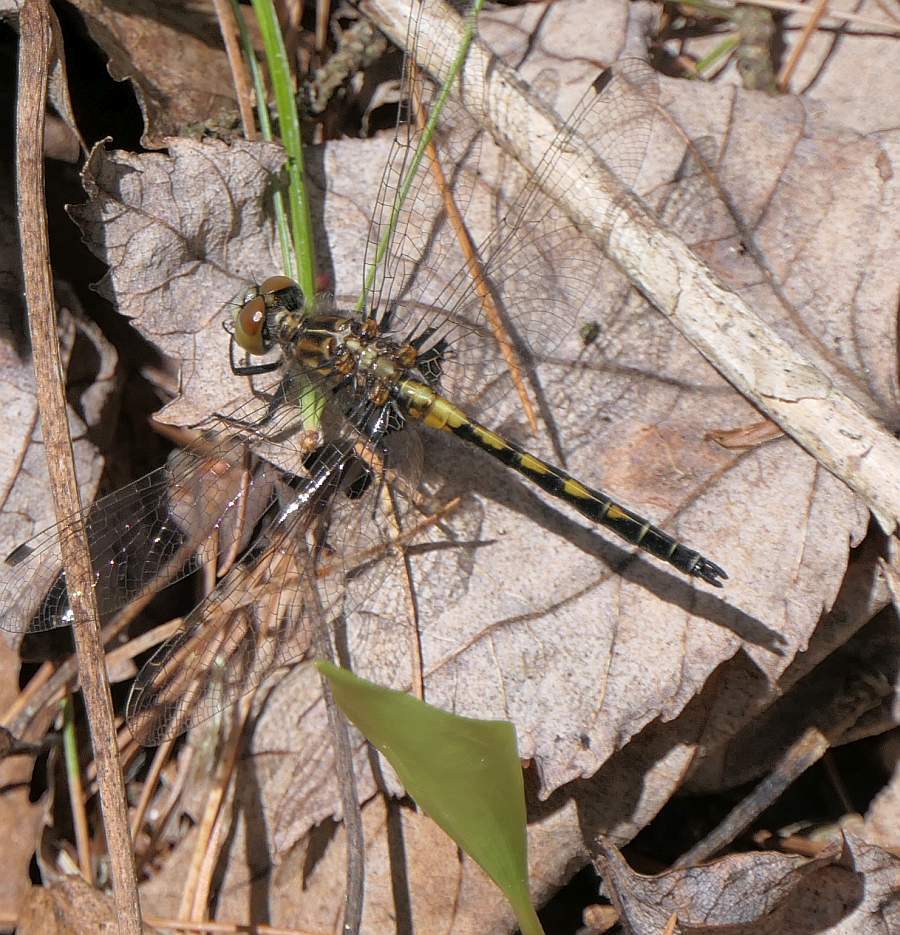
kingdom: Animalia
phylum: Arthropoda
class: Insecta
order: Odonata
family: Libellulidae
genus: Leucorrhinia
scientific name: Leucorrhinia hudsonica
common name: Hudsonian whiteface
